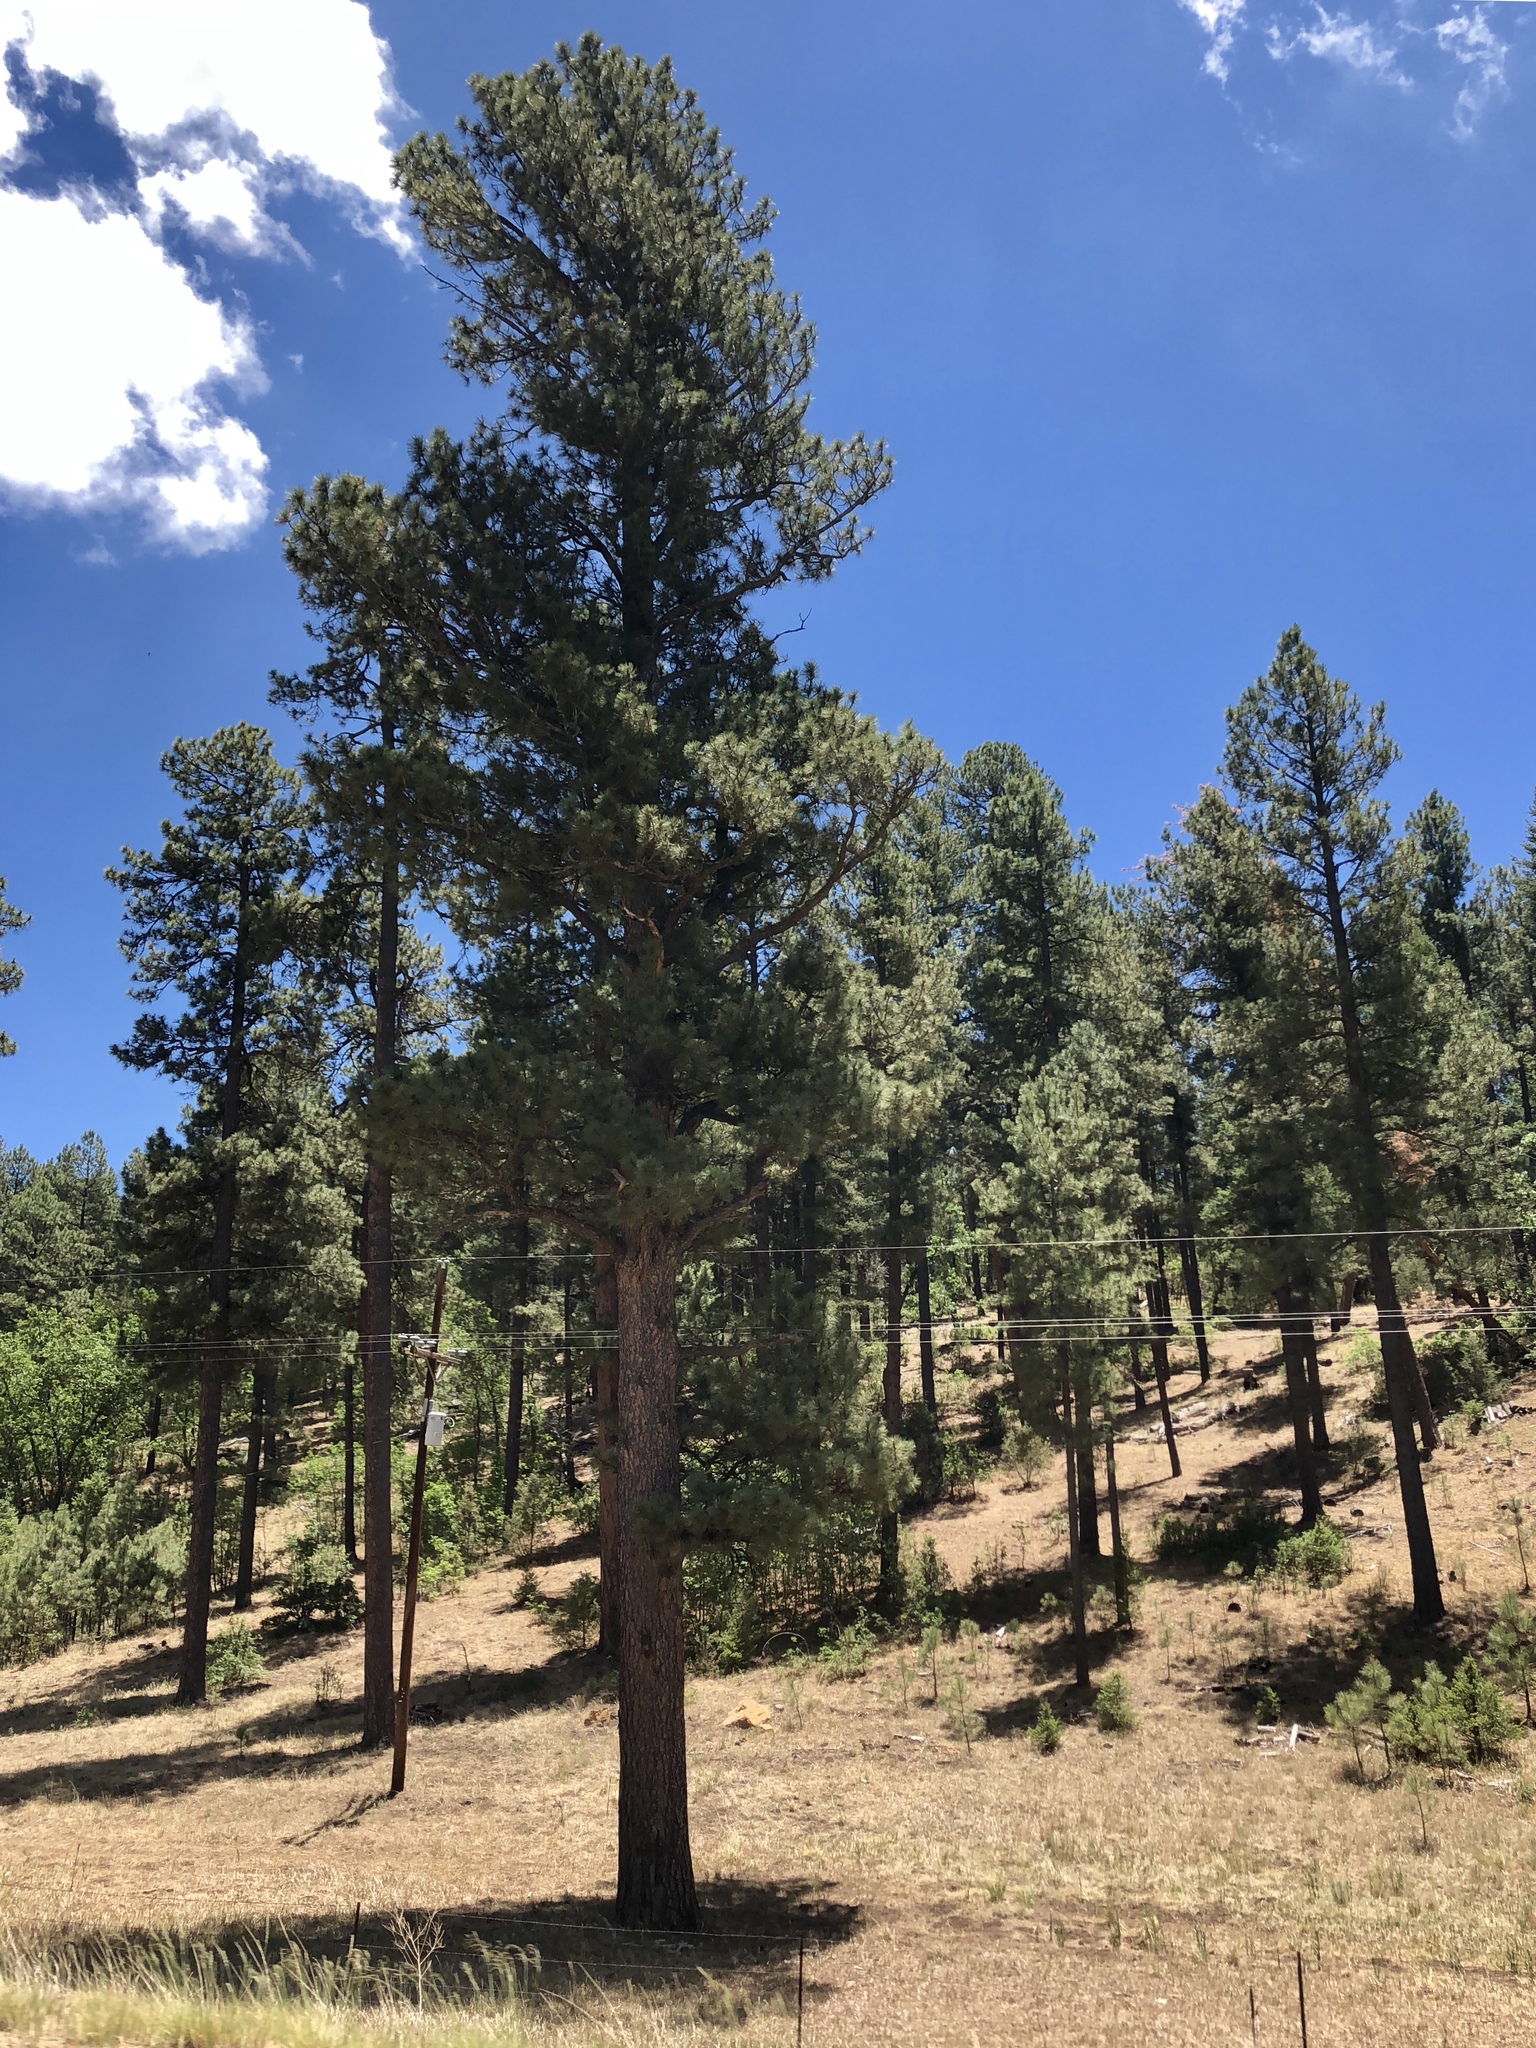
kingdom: Plantae
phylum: Tracheophyta
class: Pinopsida
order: Pinales
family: Pinaceae
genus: Pinus
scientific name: Pinus ponderosa
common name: Western yellow-pine
